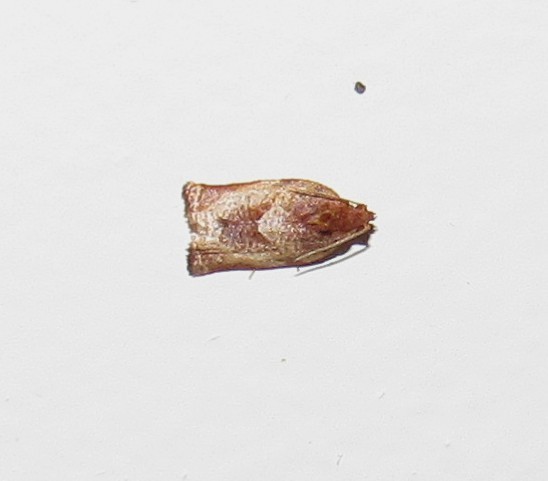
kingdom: Animalia
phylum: Arthropoda
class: Insecta
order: Lepidoptera
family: Tortricidae
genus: Ochrotaenia
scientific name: Ochrotaenia flexa
